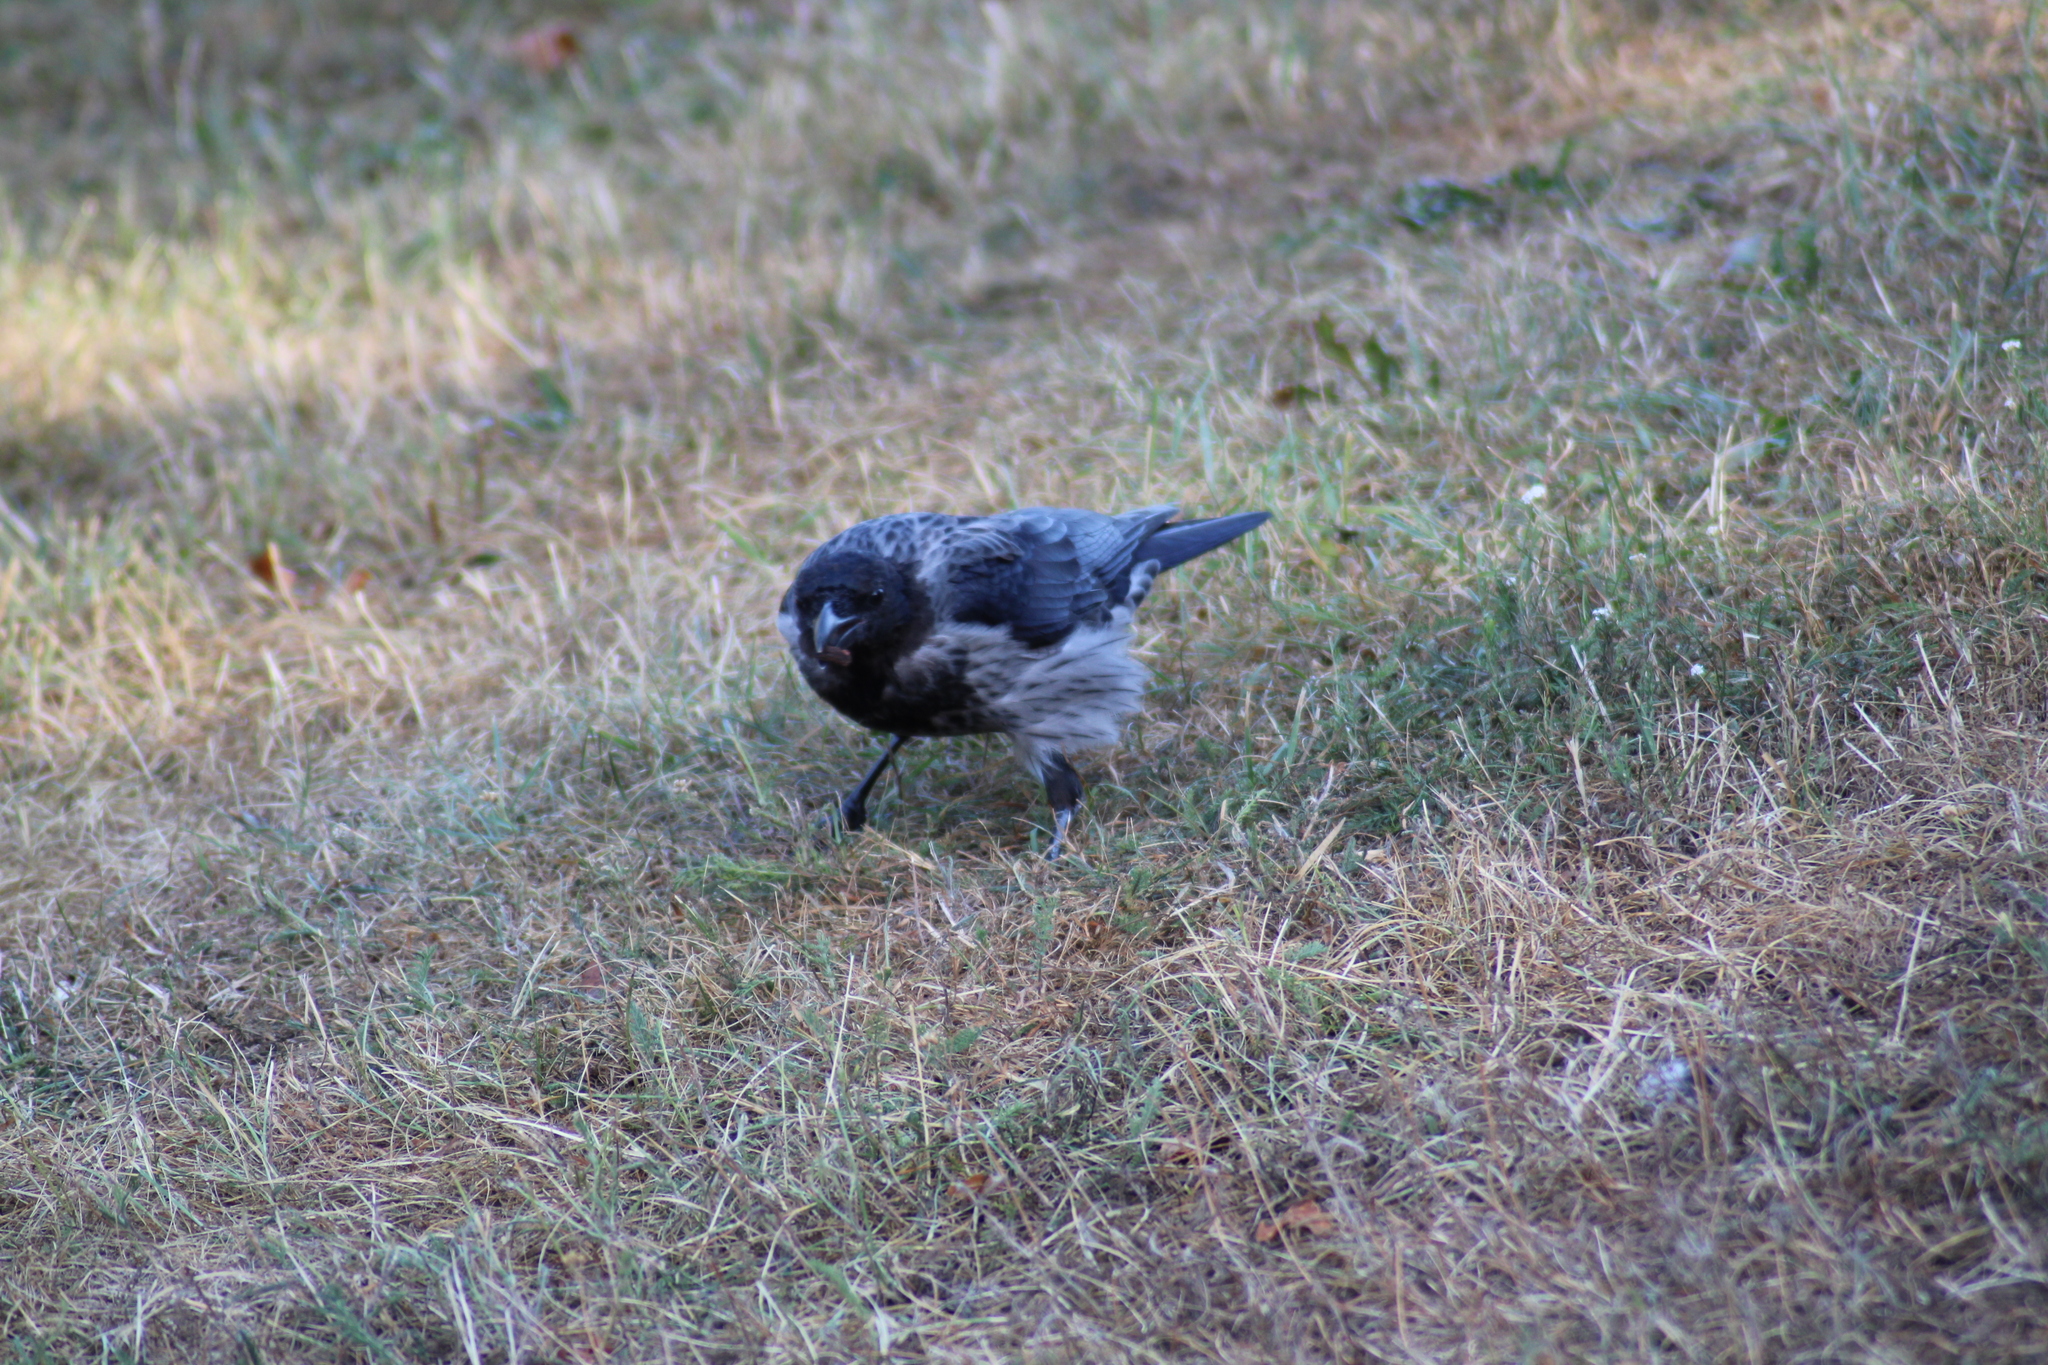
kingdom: Animalia
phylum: Chordata
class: Aves
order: Passeriformes
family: Corvidae
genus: Corvus
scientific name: Corvus
